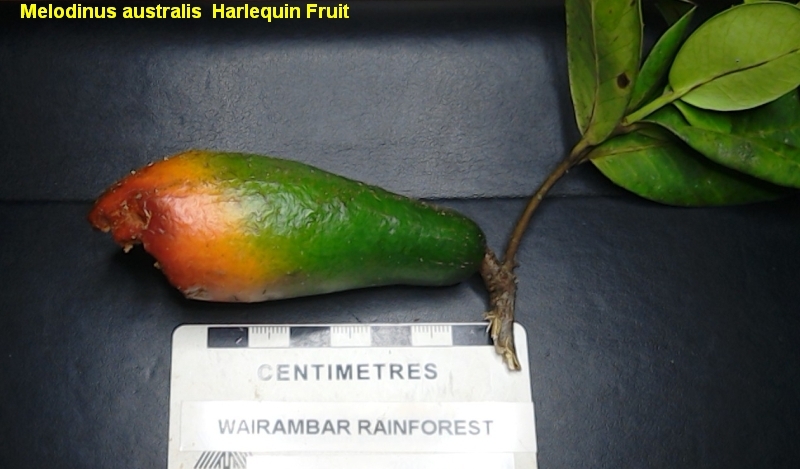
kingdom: Plantae
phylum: Tracheophyta
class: Magnoliopsida
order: Gentianales
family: Apocynaceae
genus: Melodinus
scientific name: Melodinus australis
